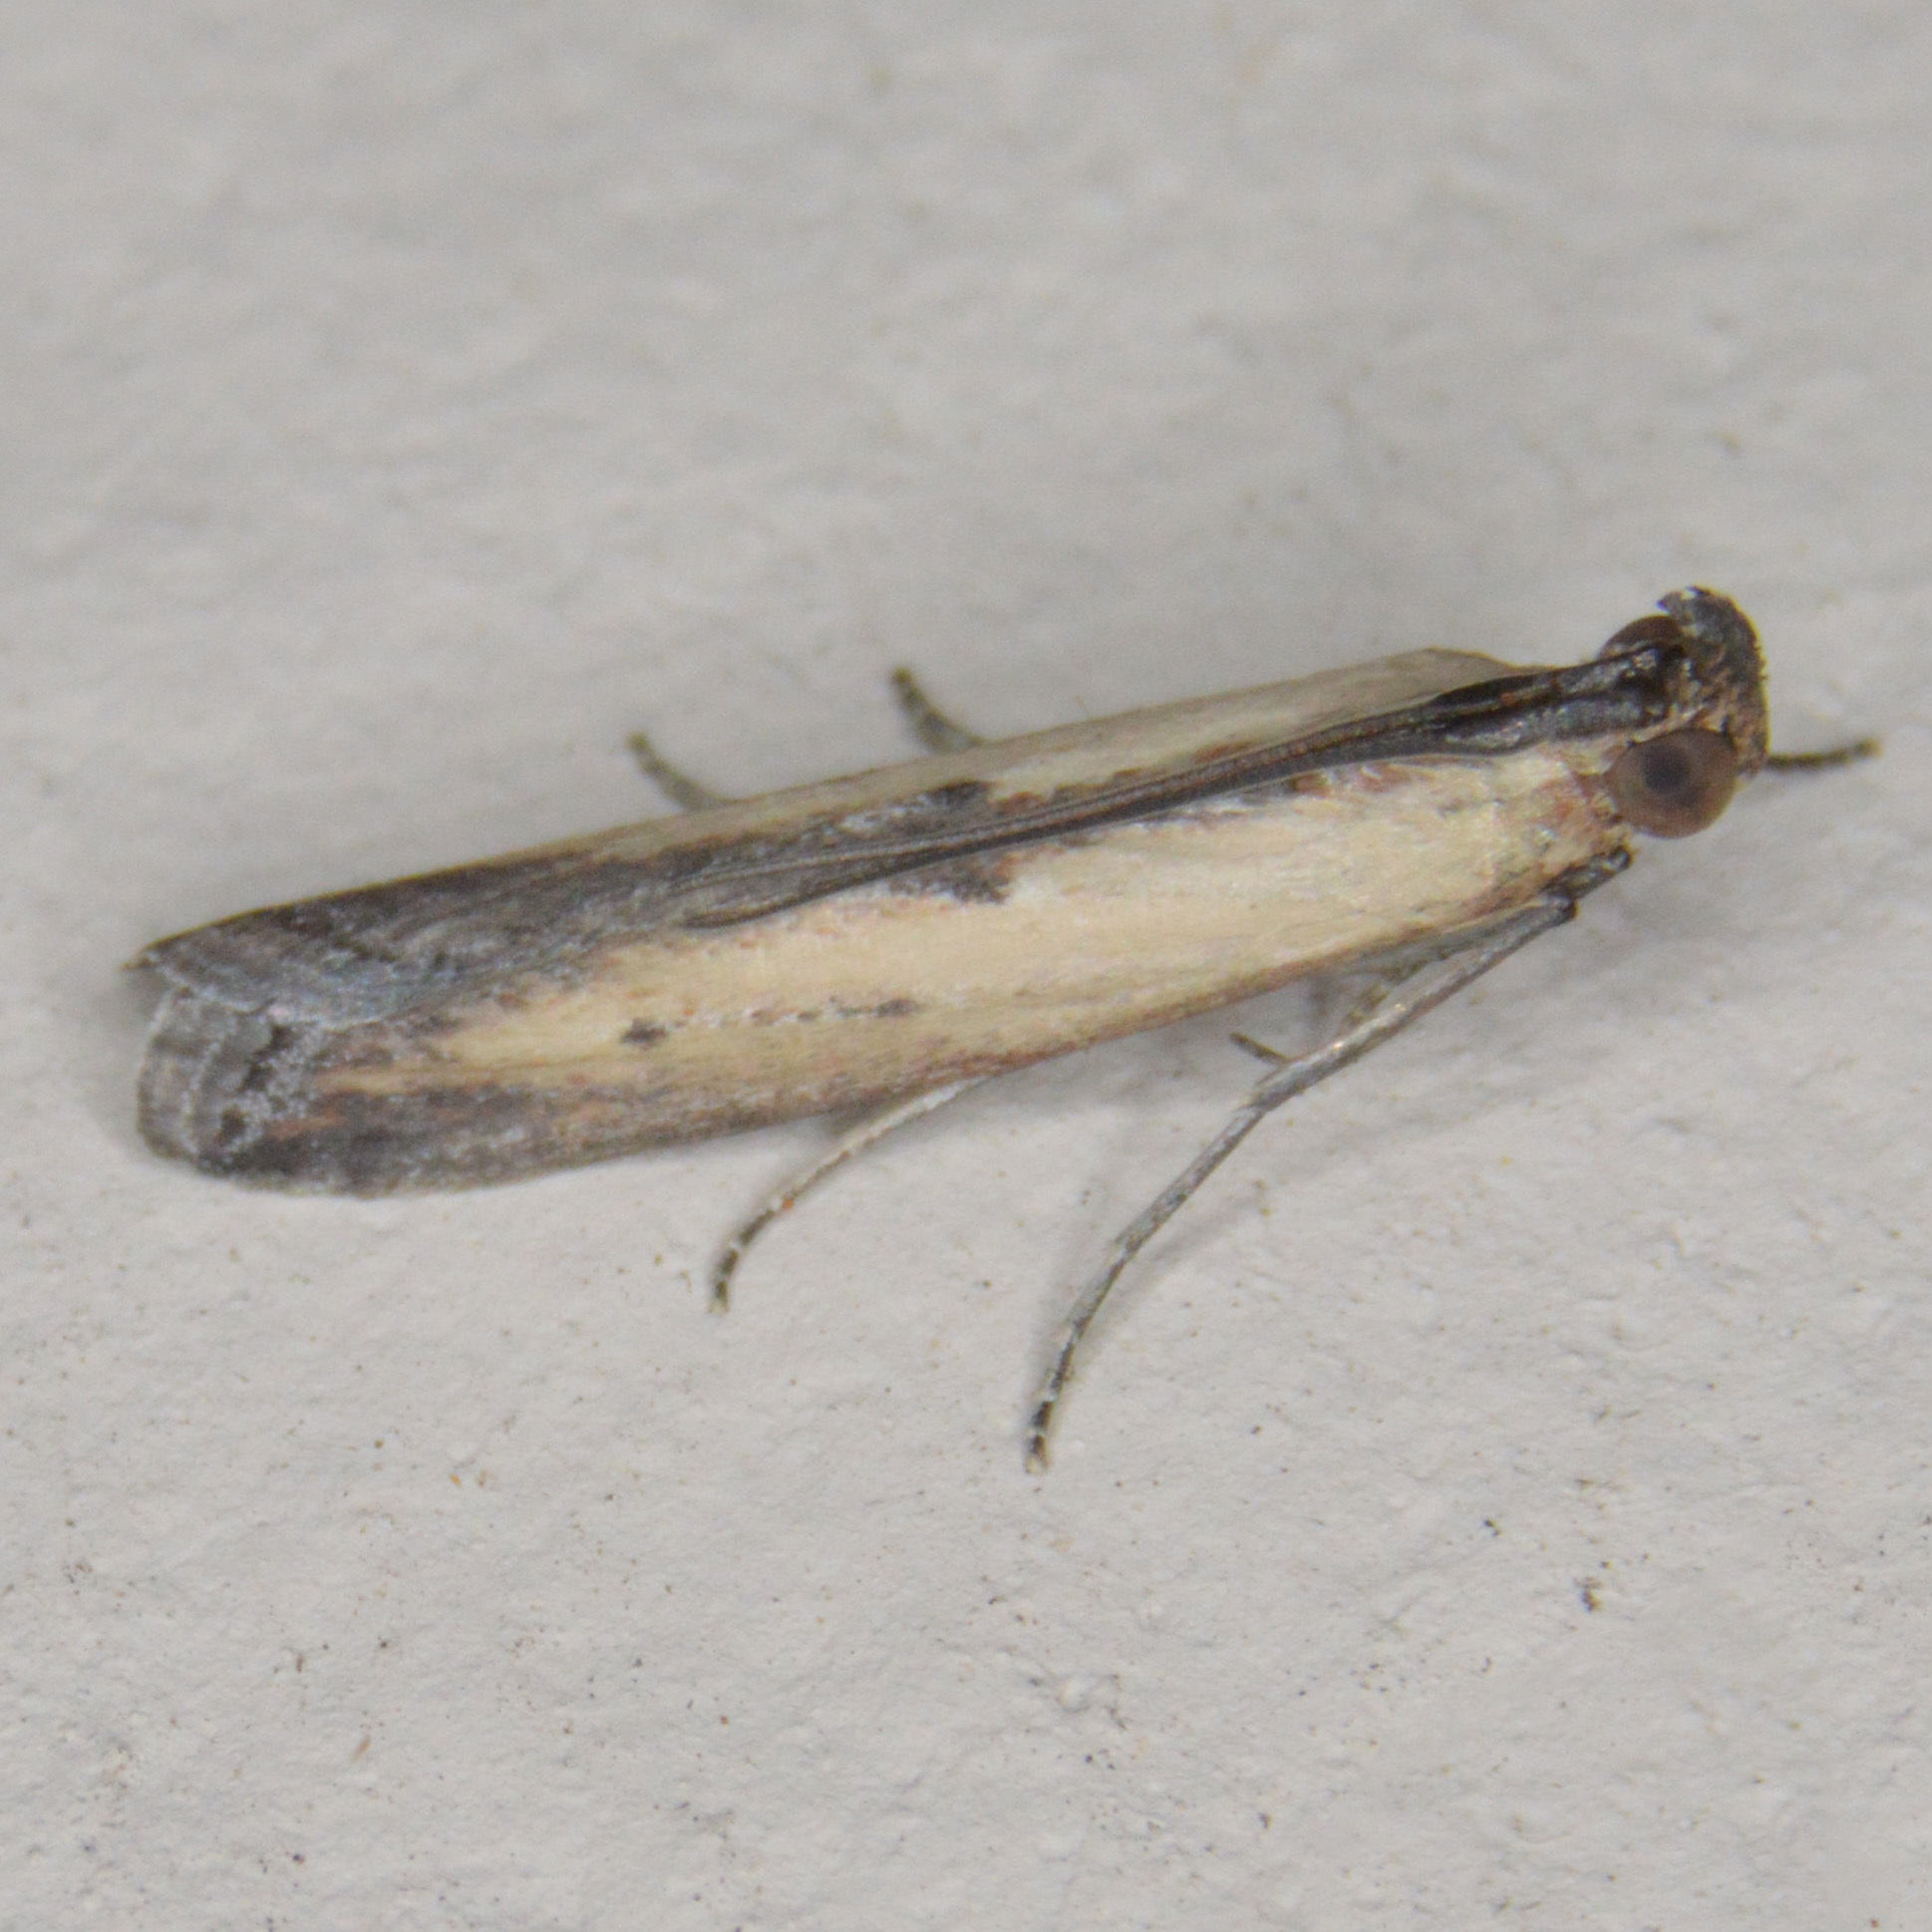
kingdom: Animalia
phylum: Arthropoda
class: Insecta
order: Lepidoptera
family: Pyralidae
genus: Elasmopalpus
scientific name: Elasmopalpus lignosella
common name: Lesser cornstalk borer
